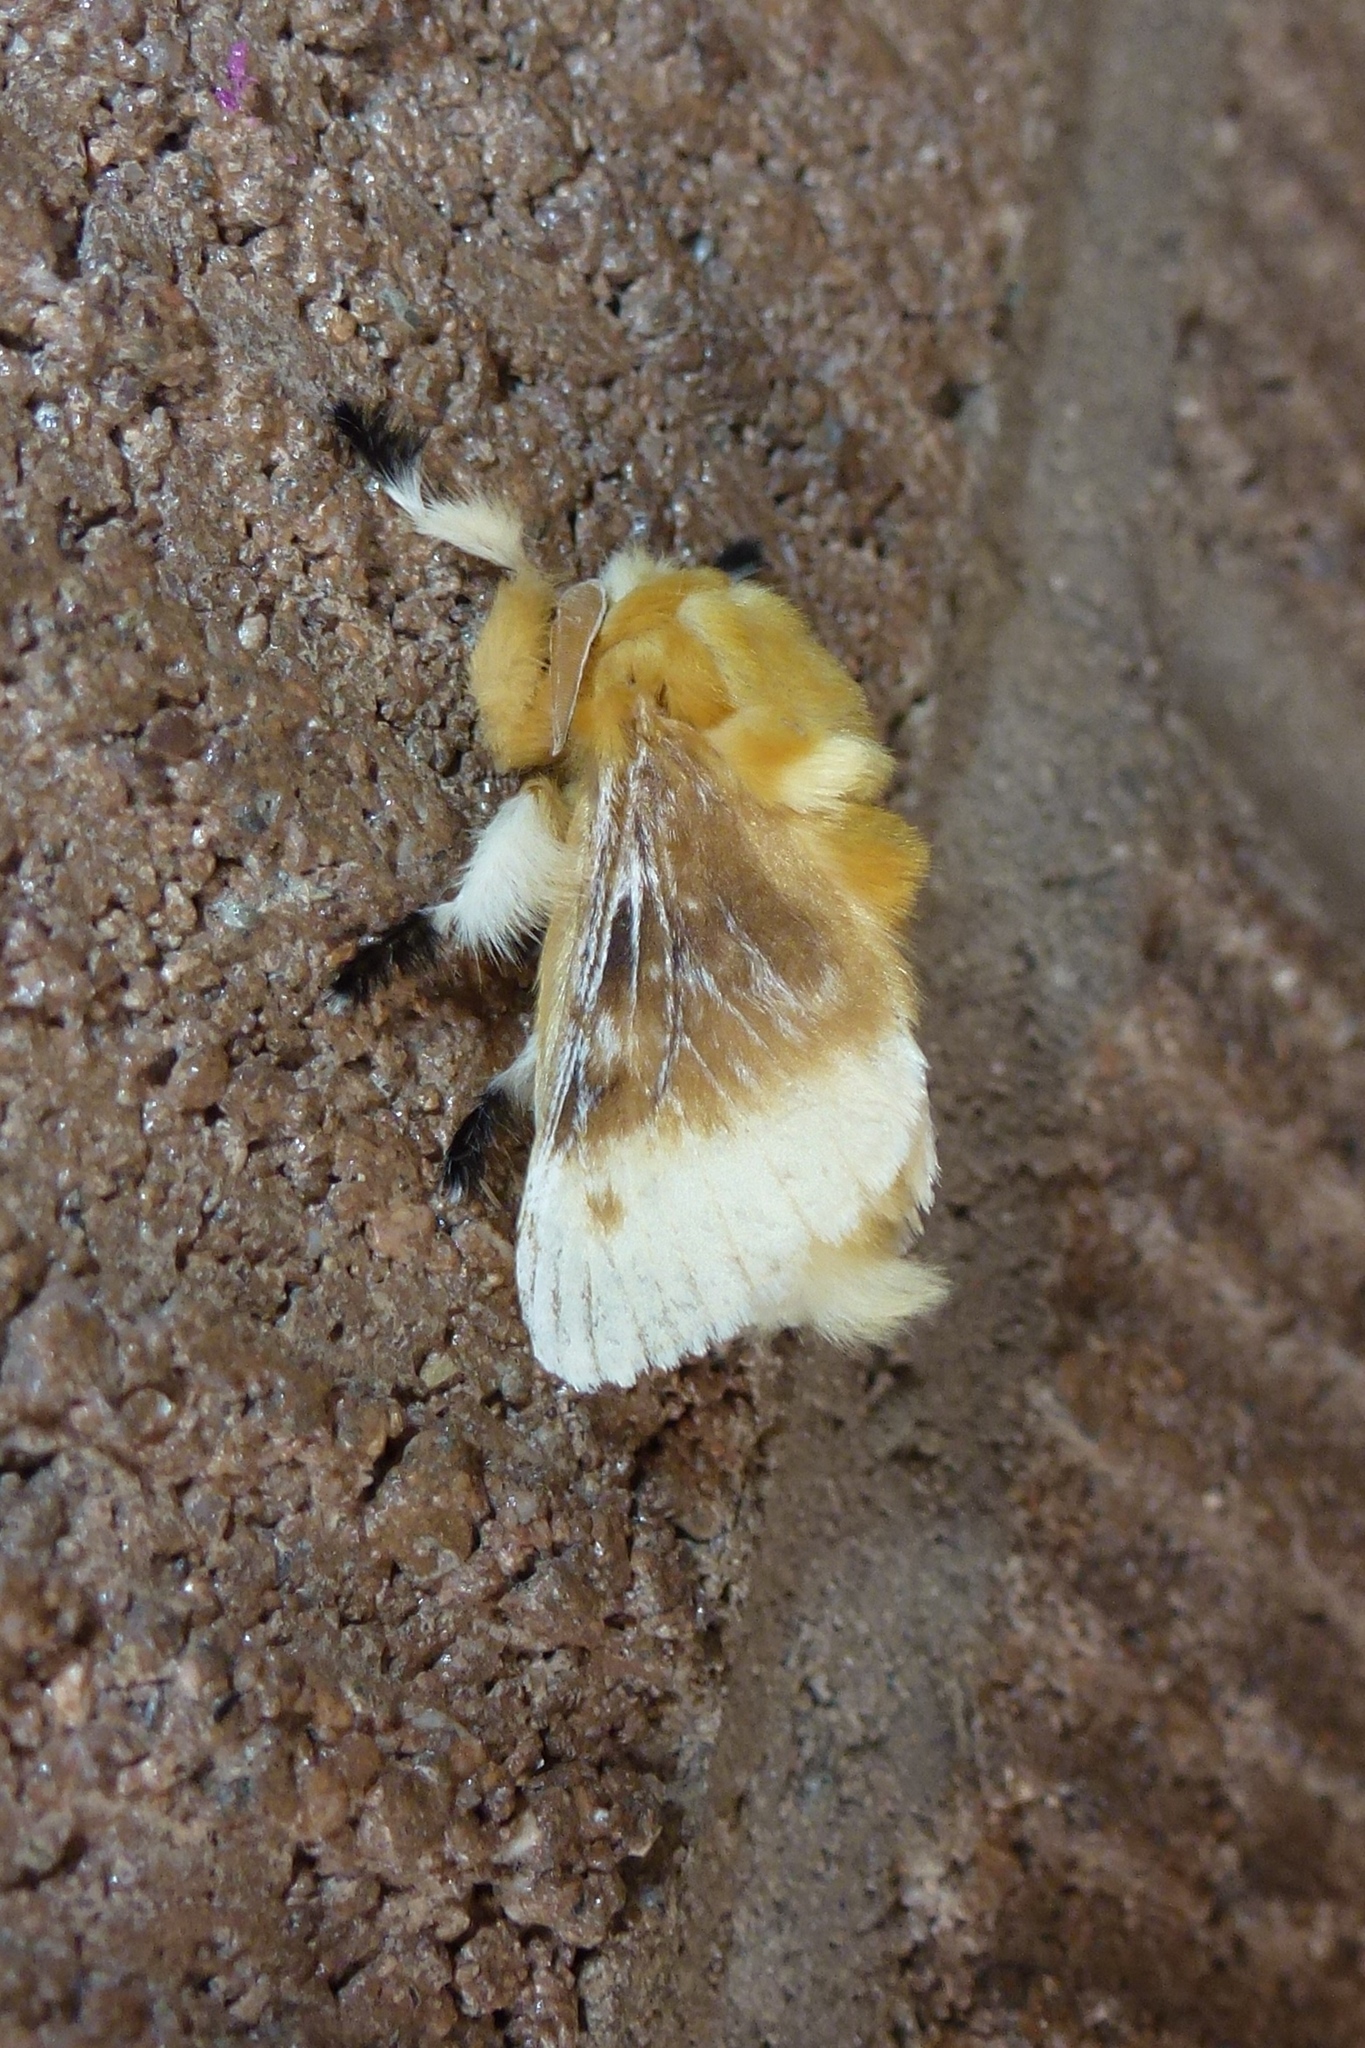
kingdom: Animalia
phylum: Arthropoda
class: Insecta
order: Lepidoptera
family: Megalopygidae
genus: Megalopyge
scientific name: Megalopyge opercularis
